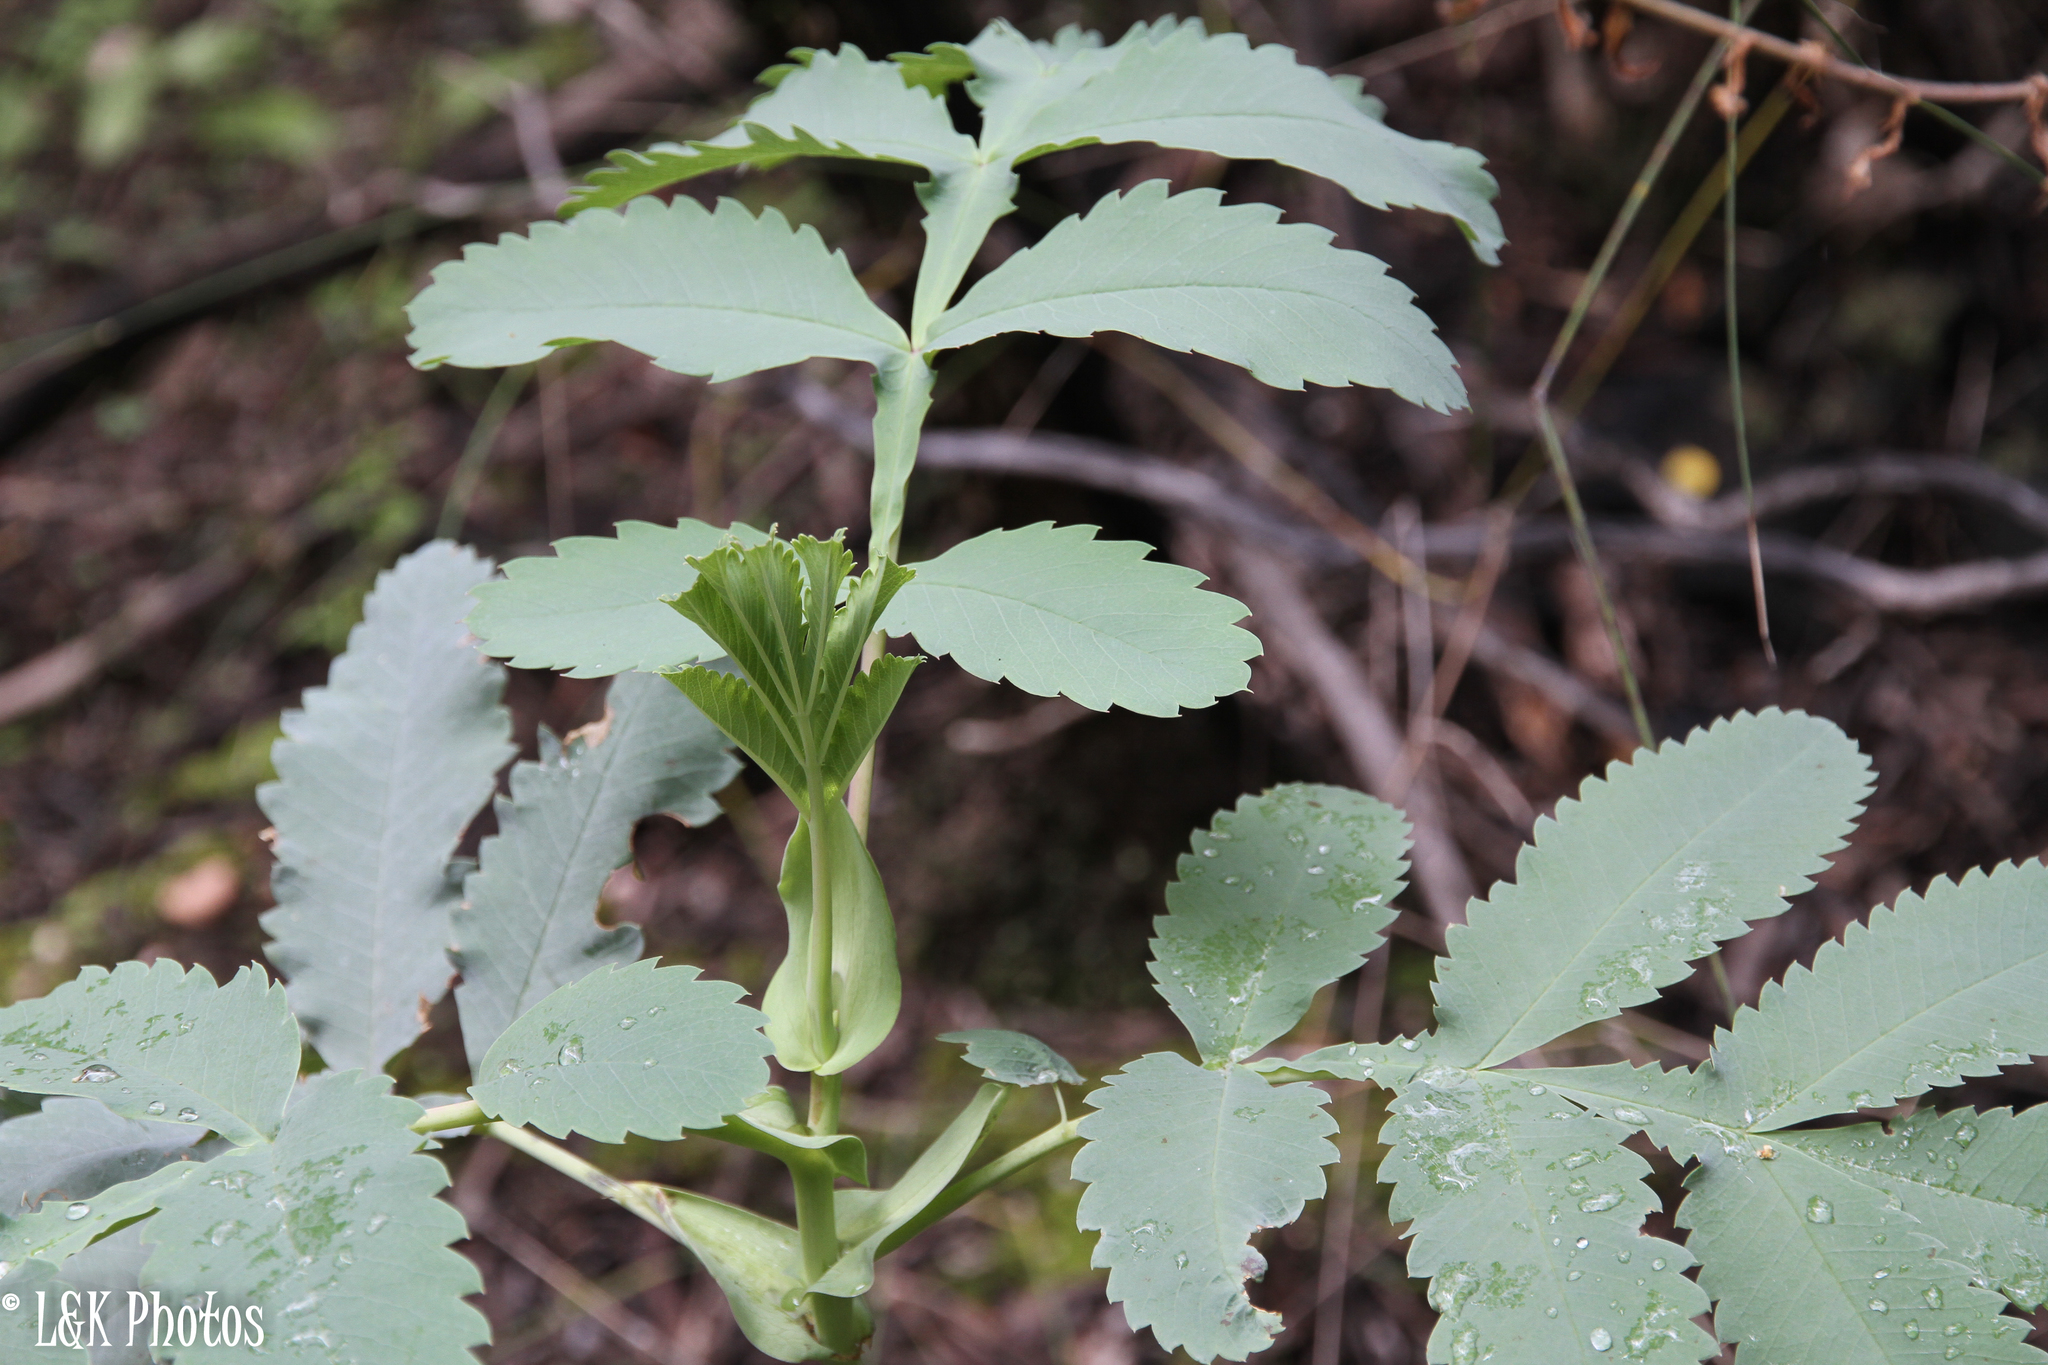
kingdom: Plantae
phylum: Tracheophyta
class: Magnoliopsida
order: Geraniales
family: Melianthaceae
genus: Melianthus
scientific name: Melianthus major
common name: Honey-flower
